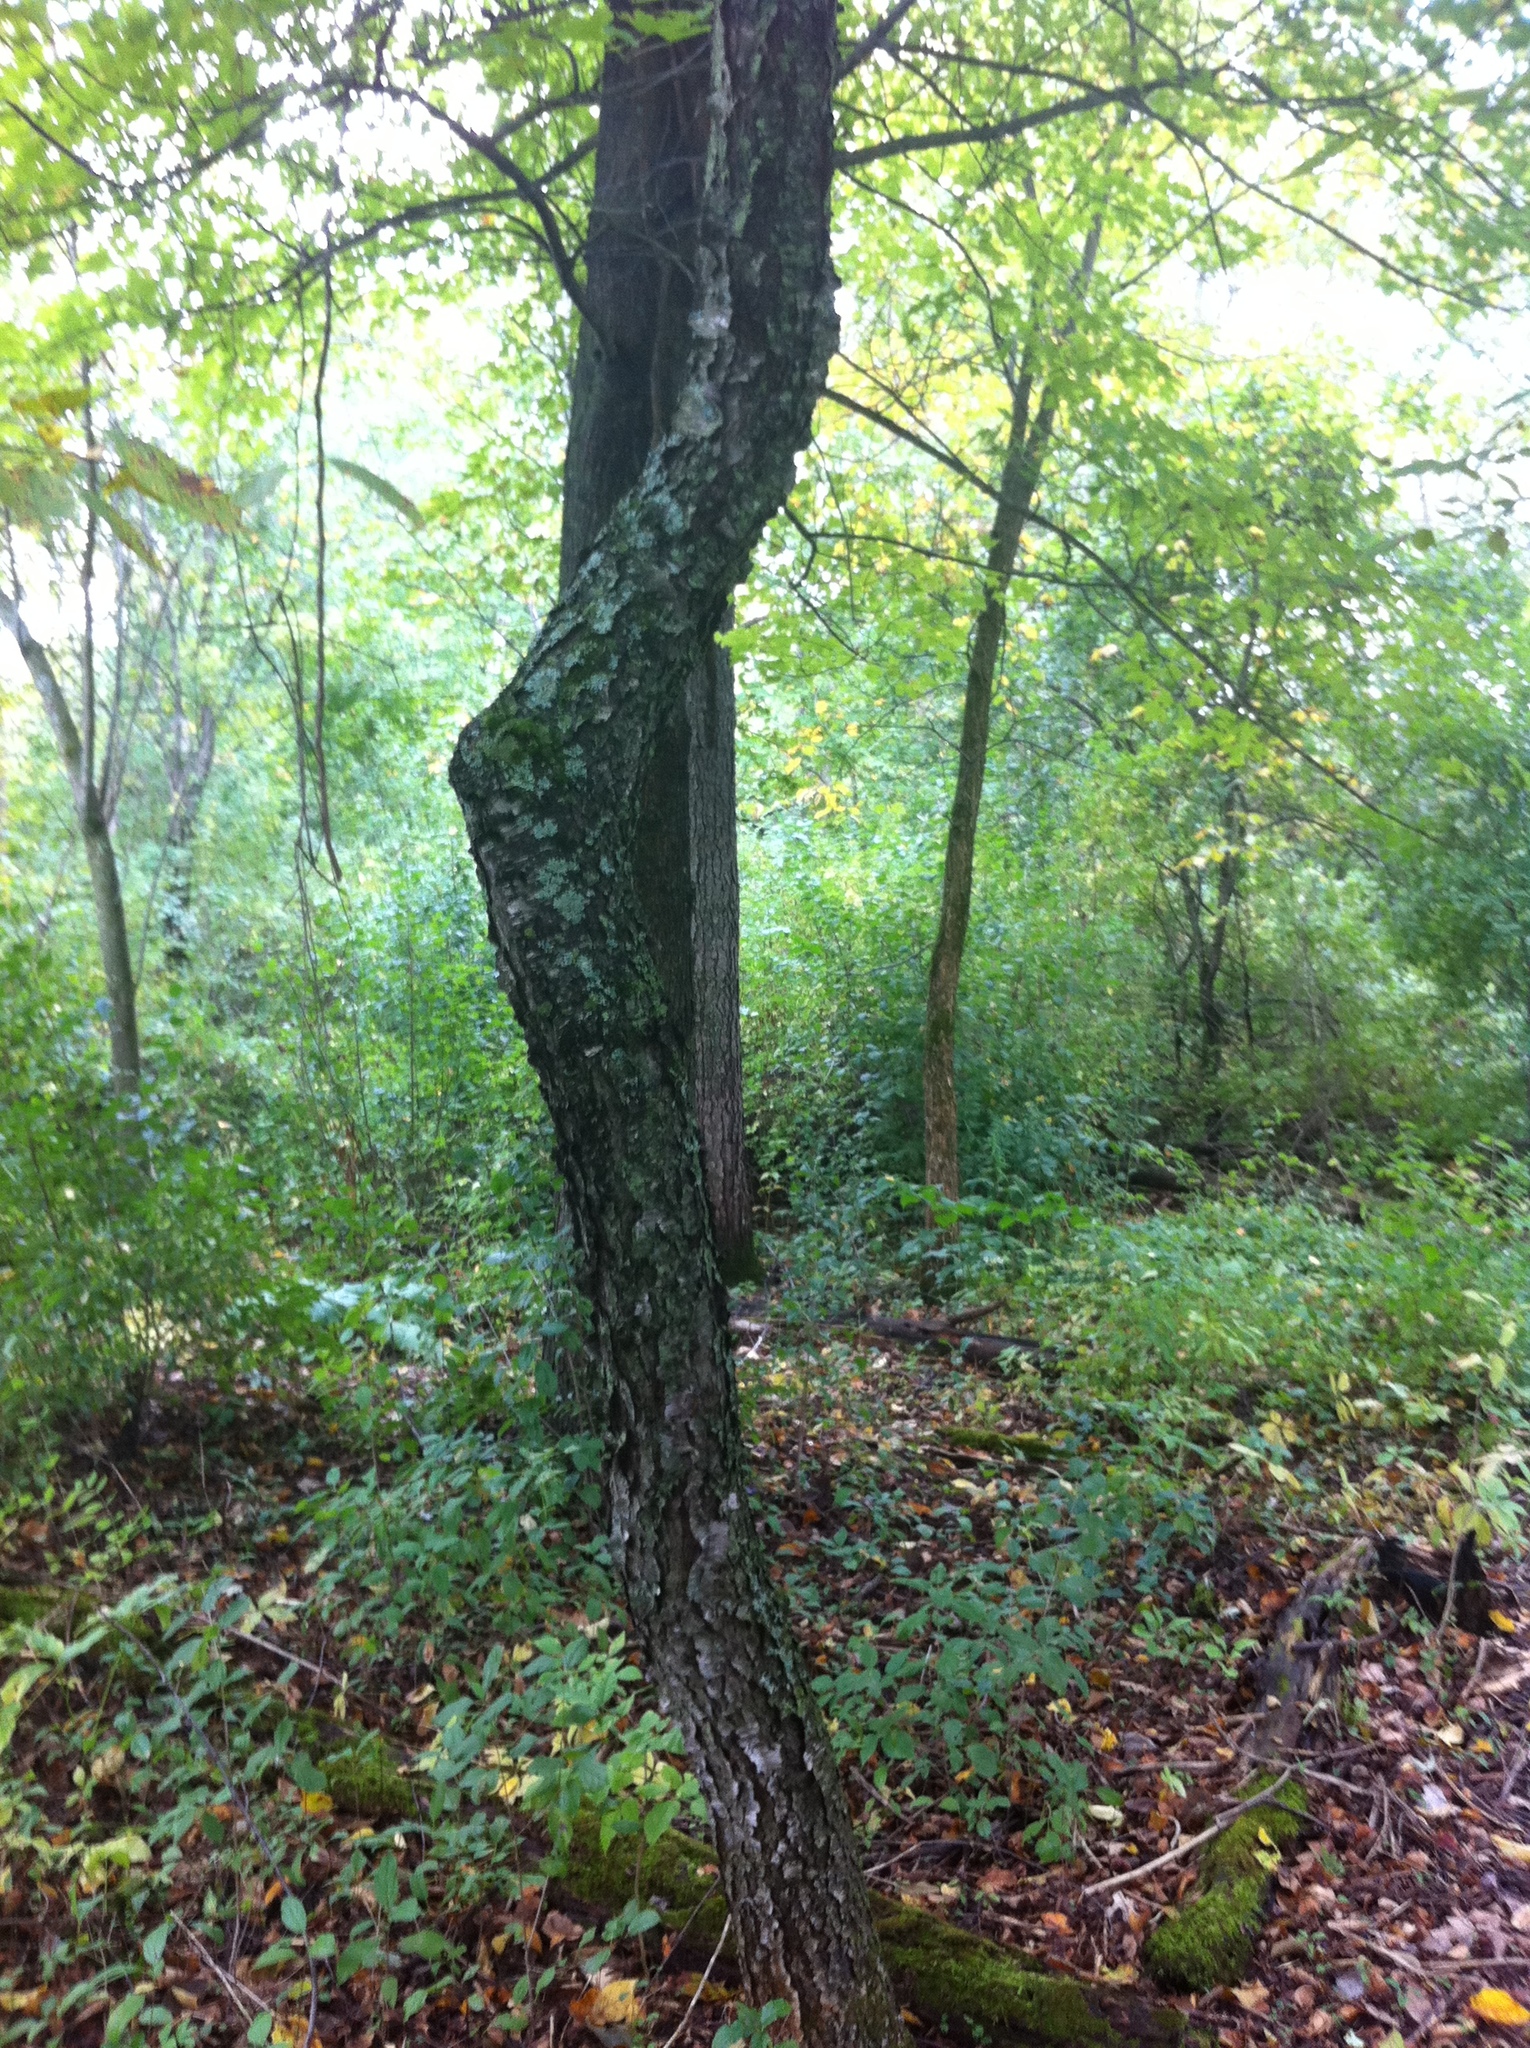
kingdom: Plantae
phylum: Tracheophyta
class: Magnoliopsida
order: Rosales
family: Rosaceae
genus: Prunus
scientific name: Prunus serotina
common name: Black cherry
